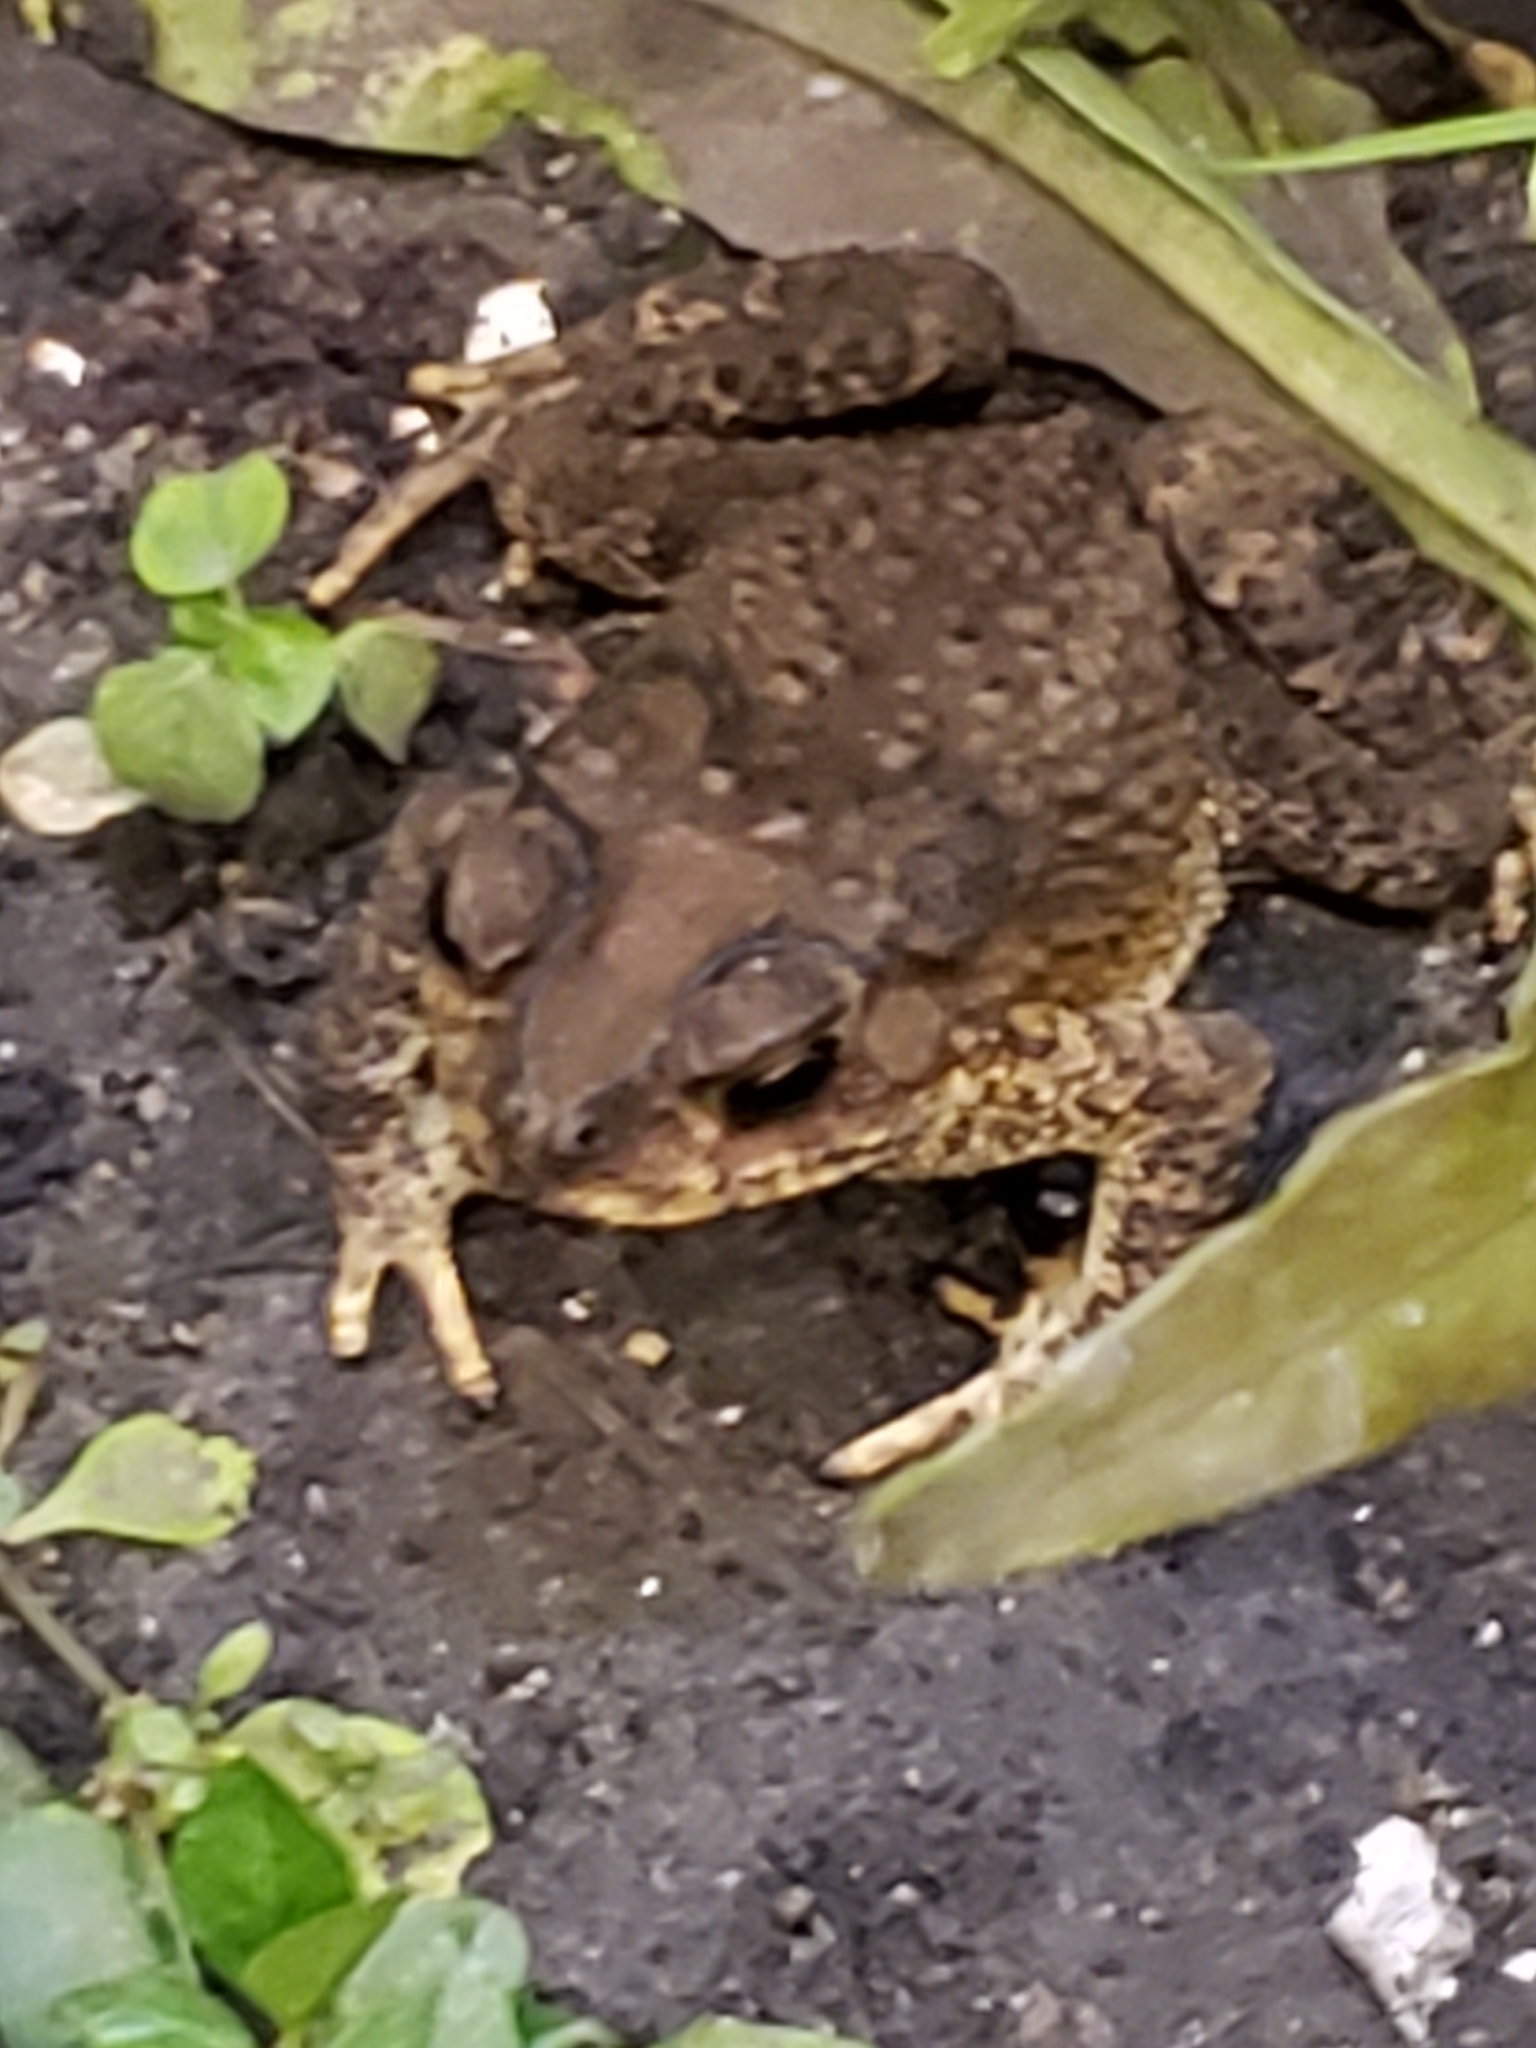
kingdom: Animalia
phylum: Chordata
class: Amphibia
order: Anura
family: Bufonidae
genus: Duttaphrynus
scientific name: Duttaphrynus melanostictus
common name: Common sunda toad
